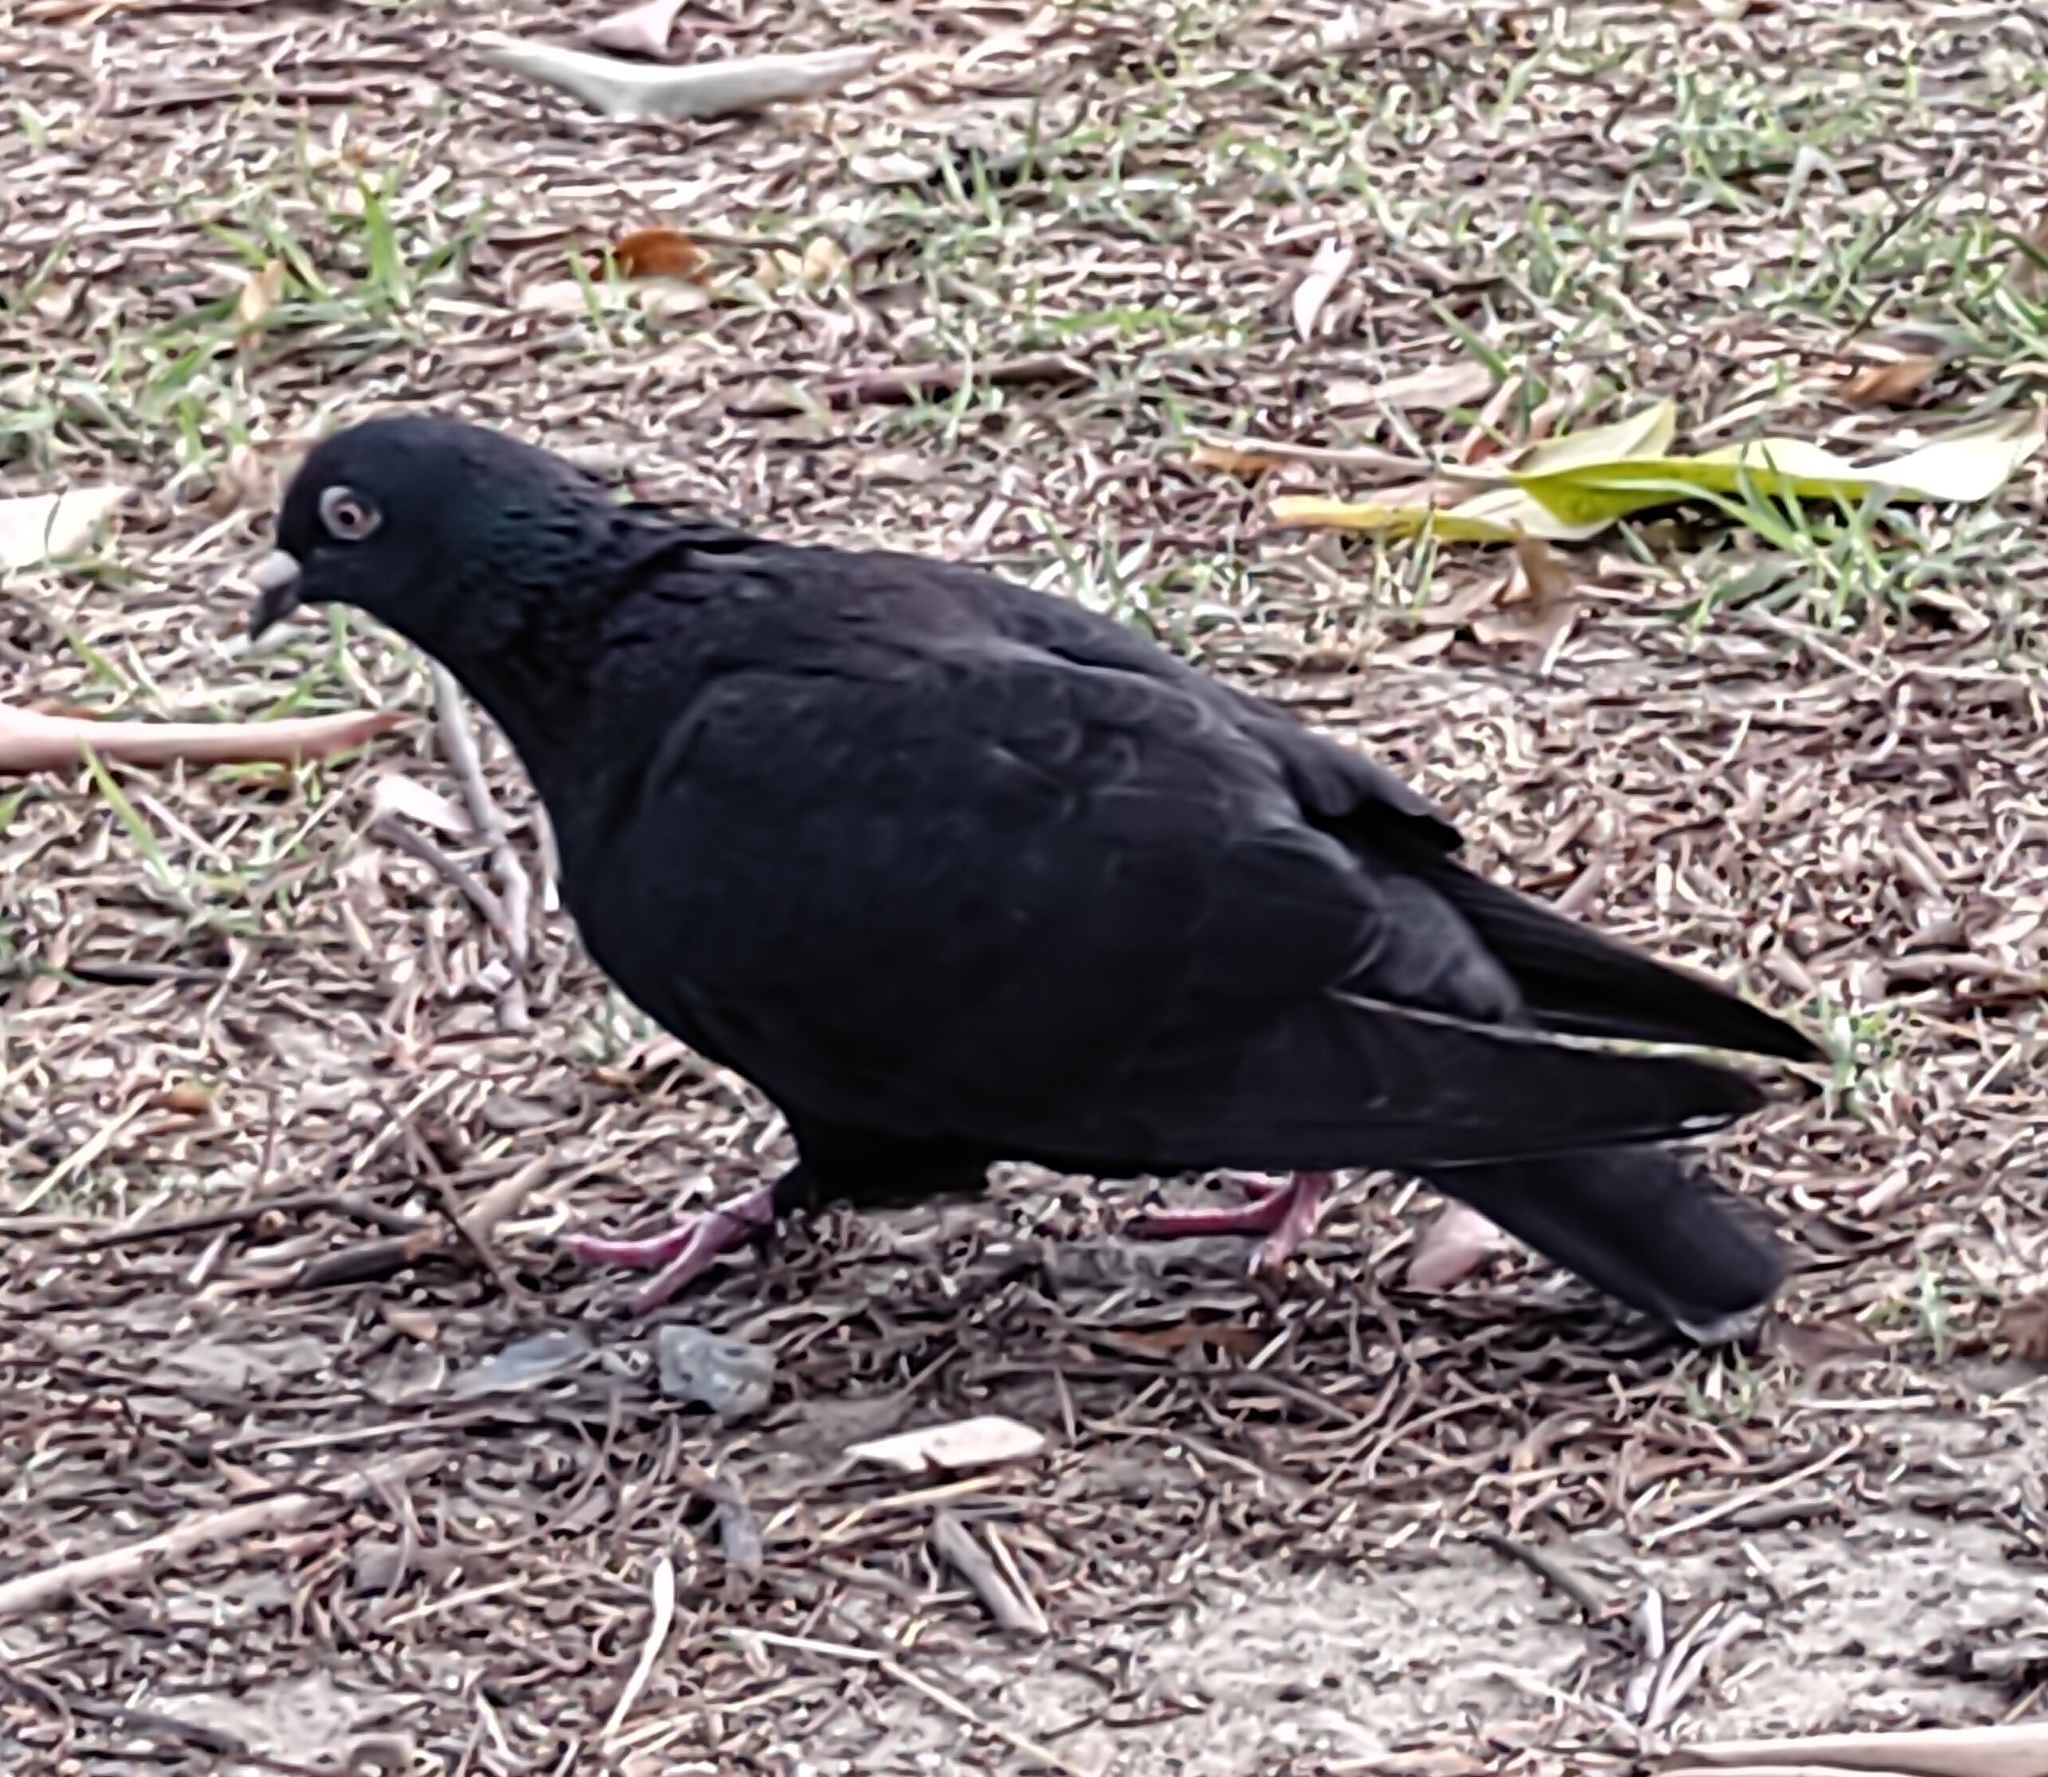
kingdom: Animalia
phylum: Chordata
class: Aves
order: Columbiformes
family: Columbidae
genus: Columba
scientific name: Columba livia
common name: Rock pigeon
